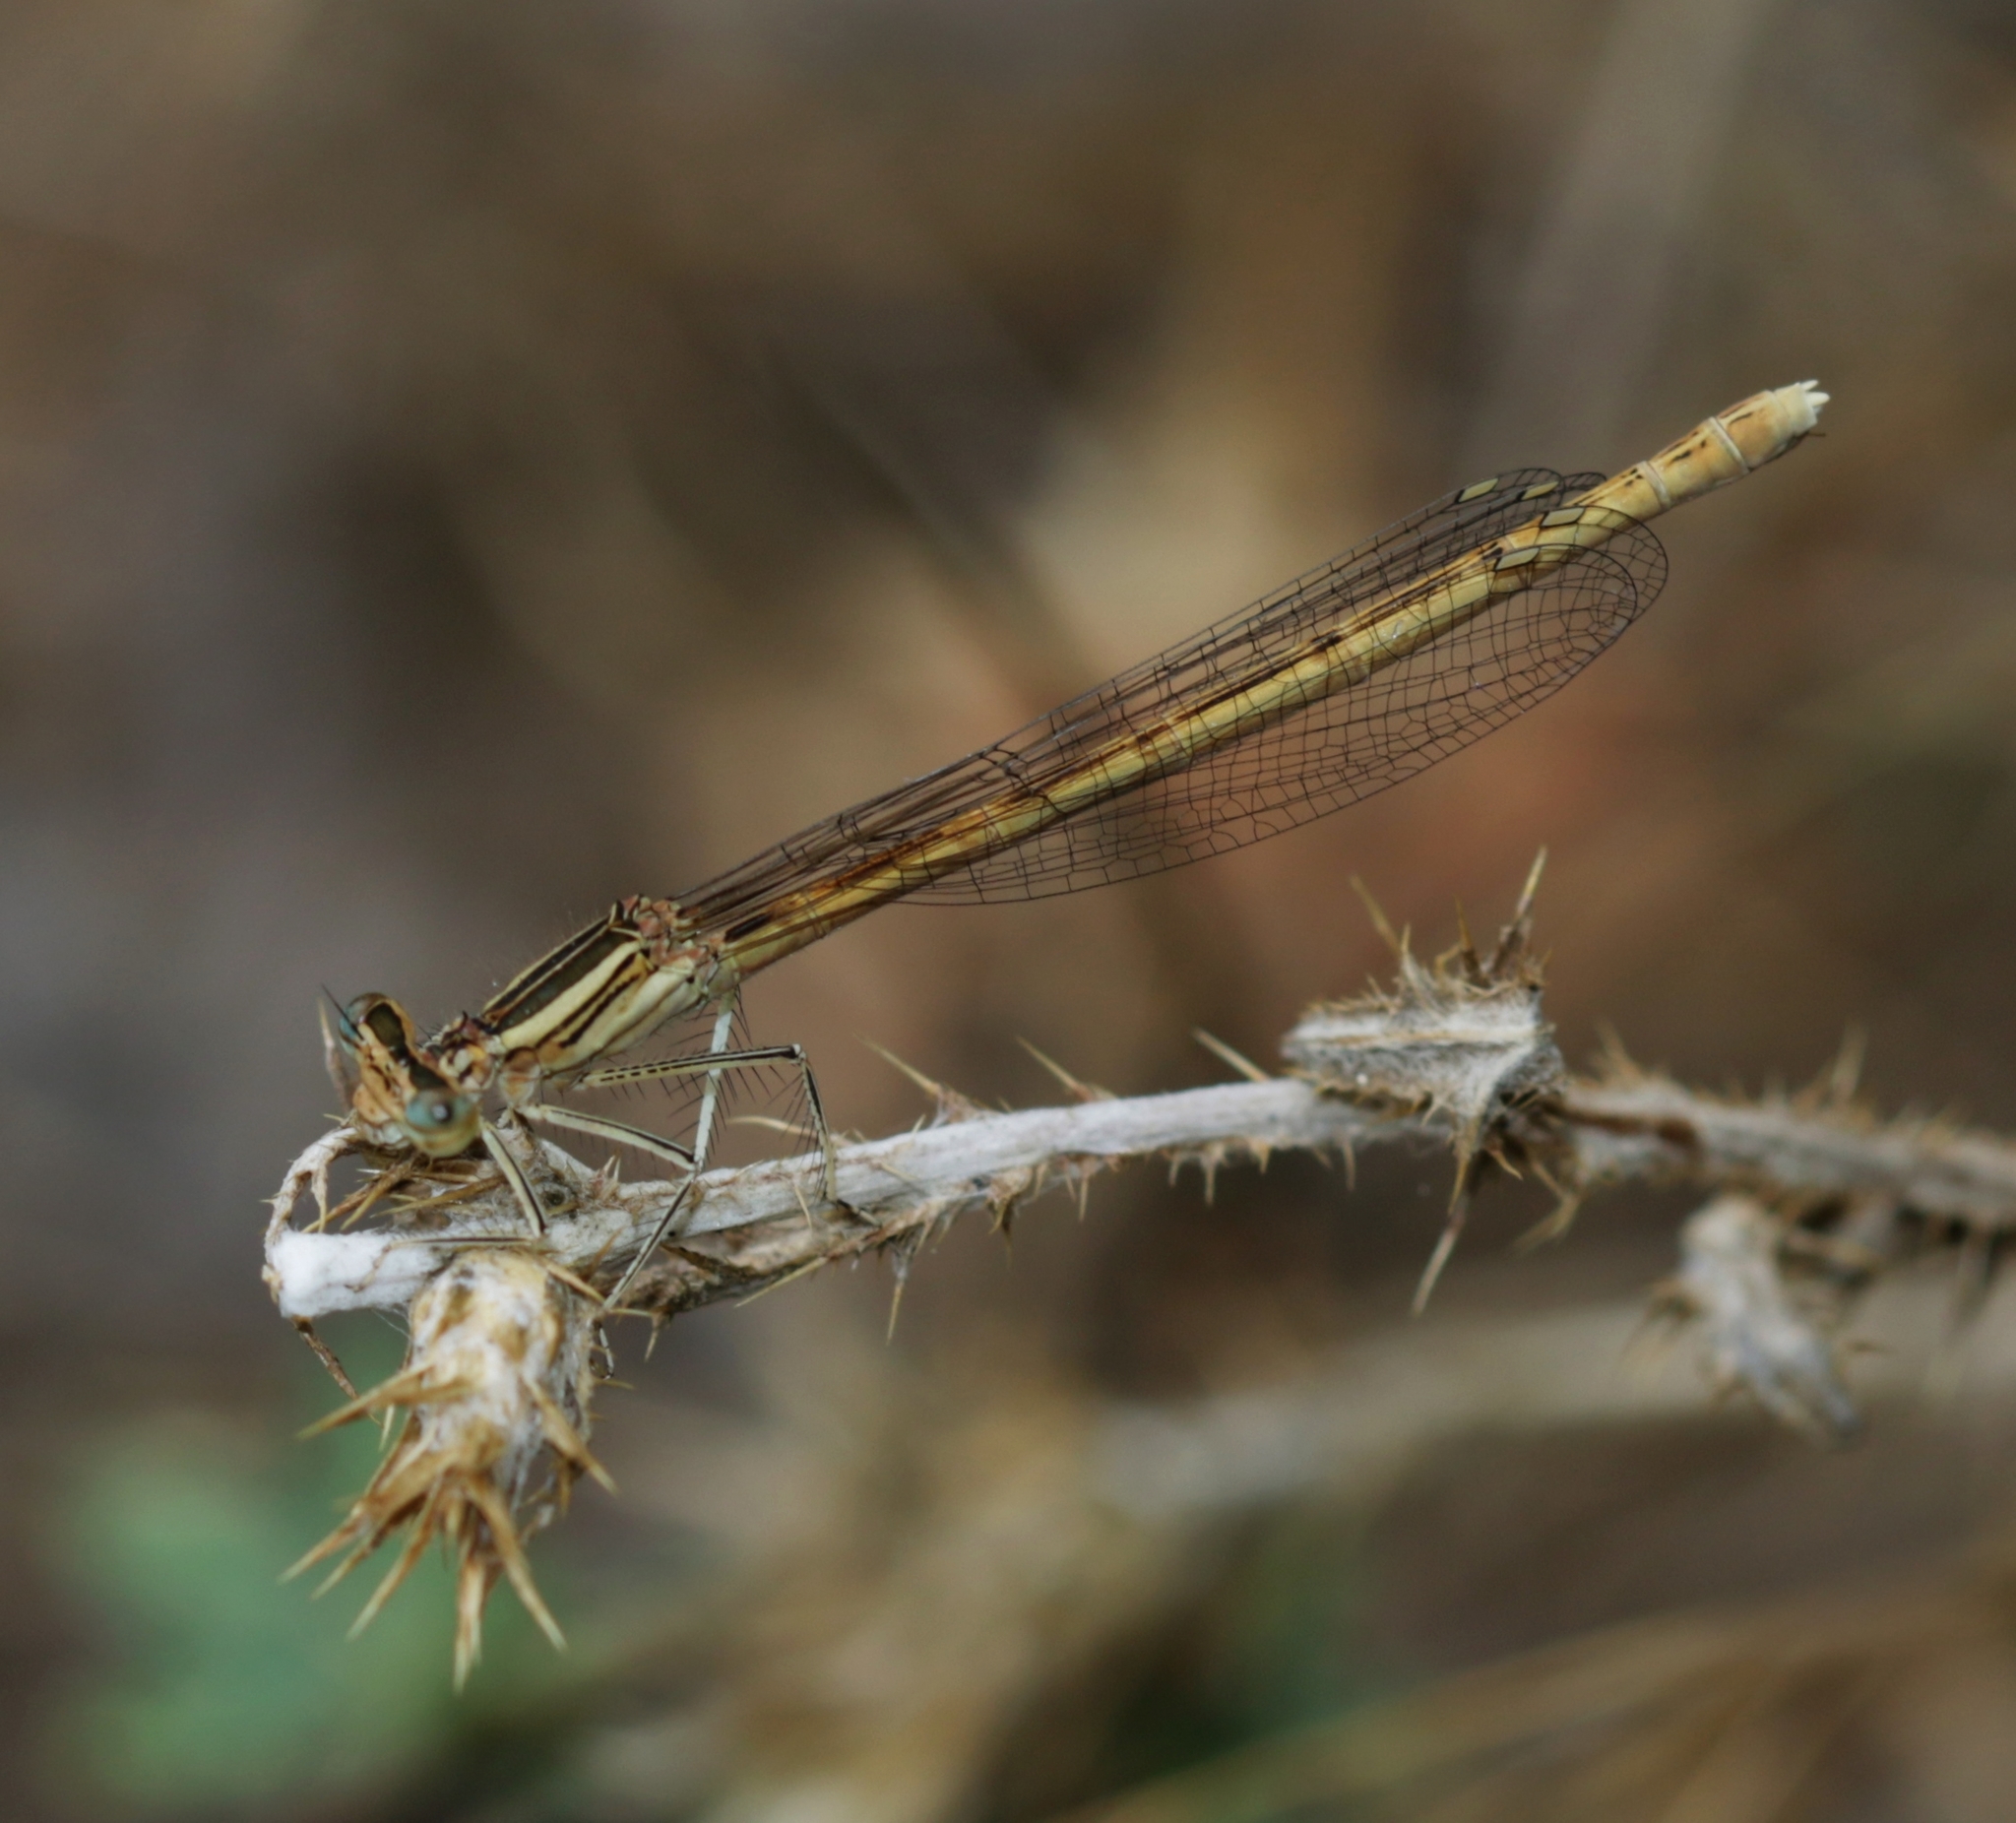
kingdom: Animalia
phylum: Arthropoda
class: Insecta
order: Odonata
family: Platycnemididae
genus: Platycnemis
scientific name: Platycnemis acutipennis
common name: Orange featherleg
